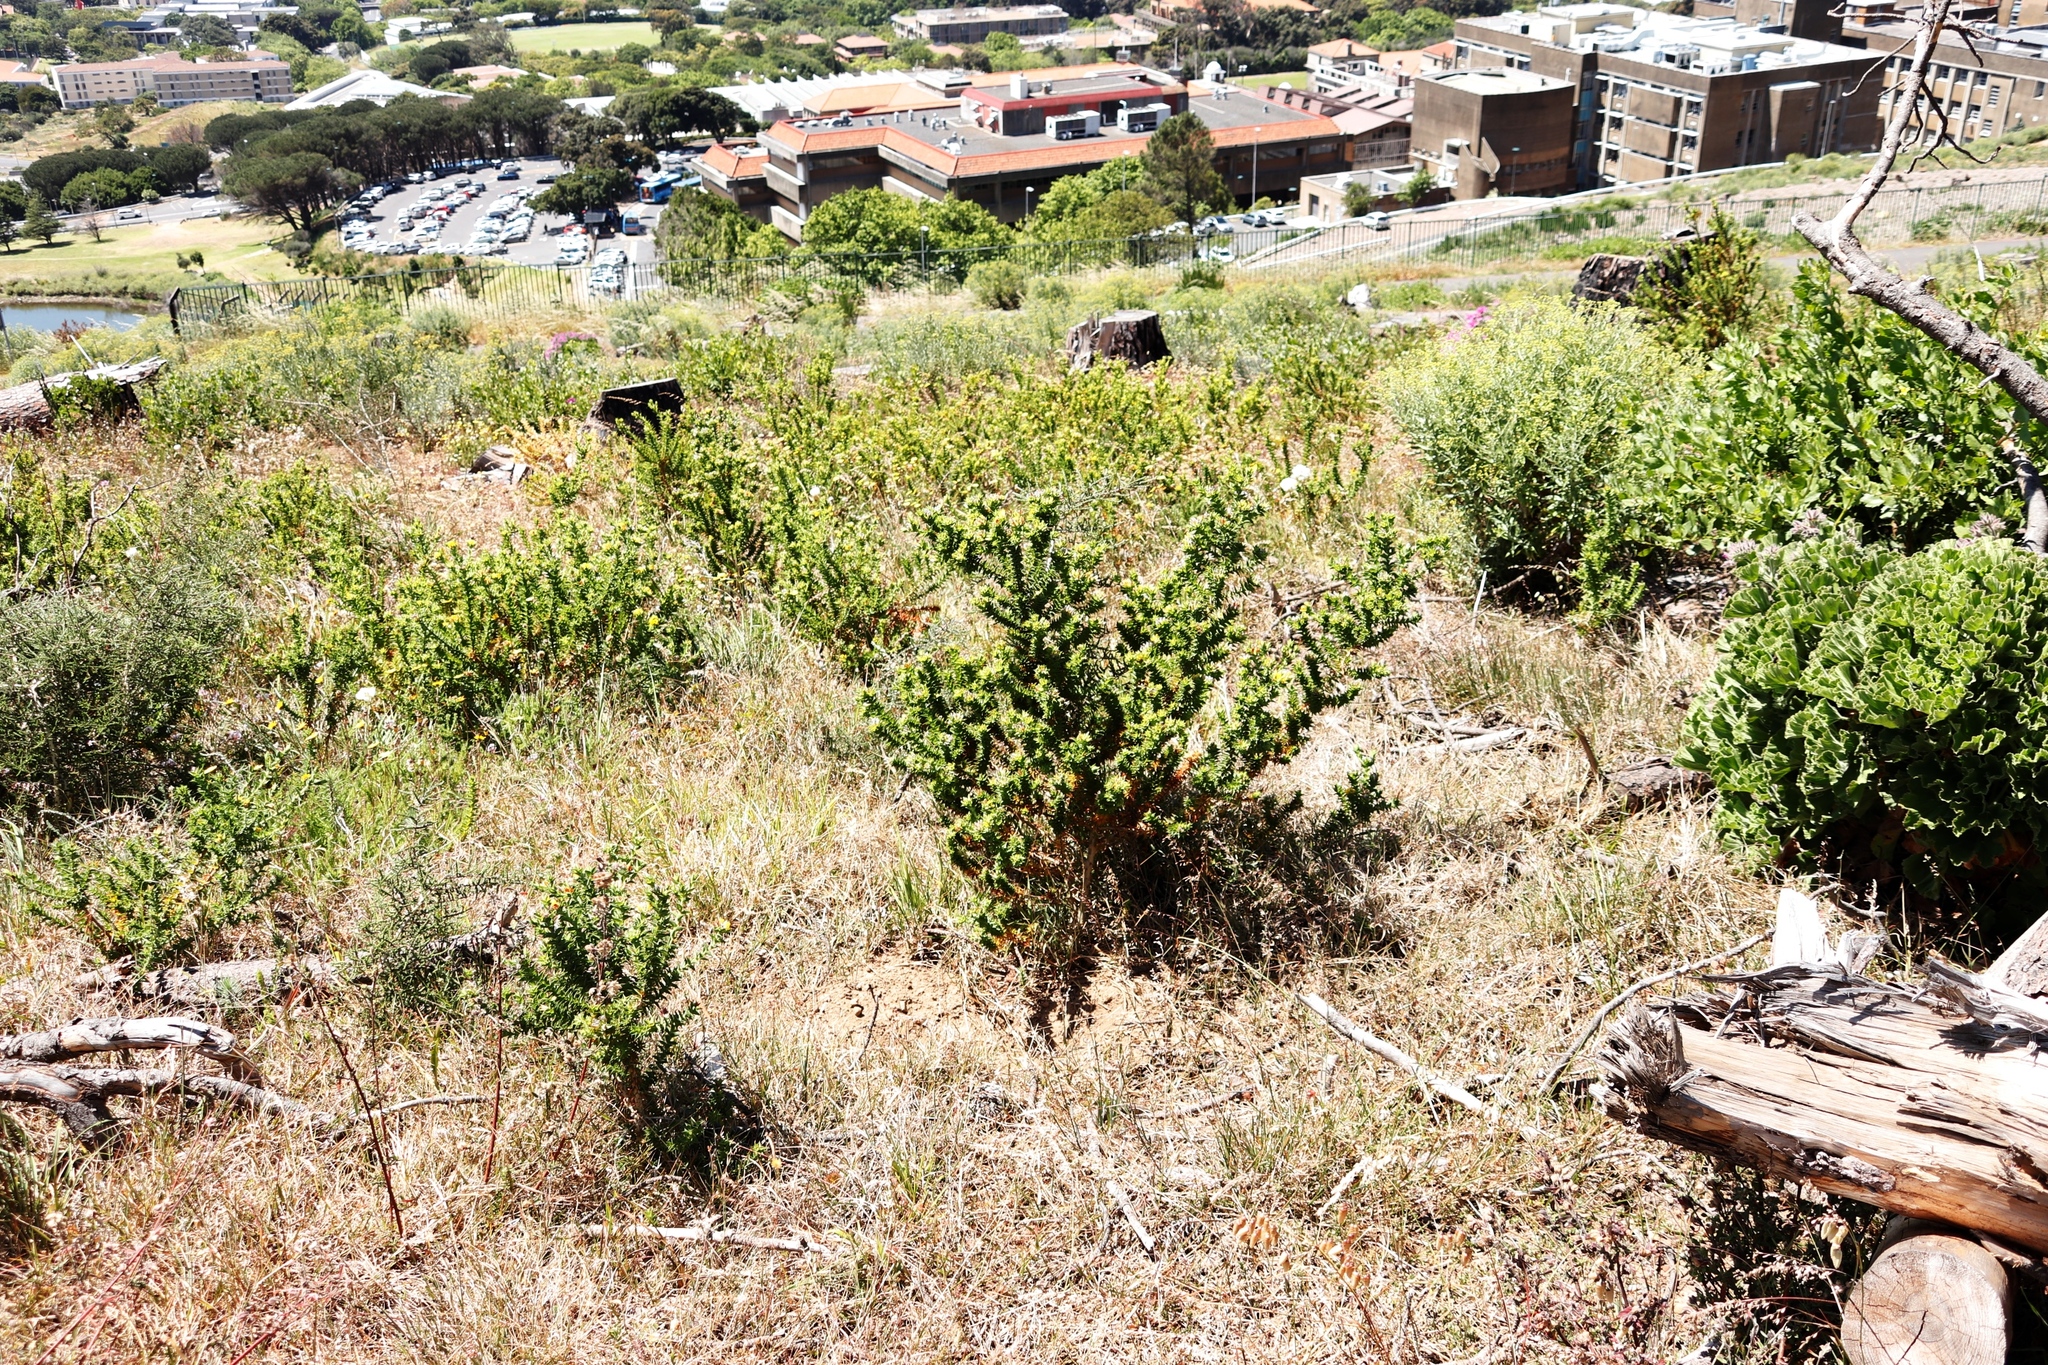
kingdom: Plantae
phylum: Tracheophyta
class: Magnoliopsida
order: Fabales
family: Fabaceae
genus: Aspalathus
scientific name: Aspalathus cordata
